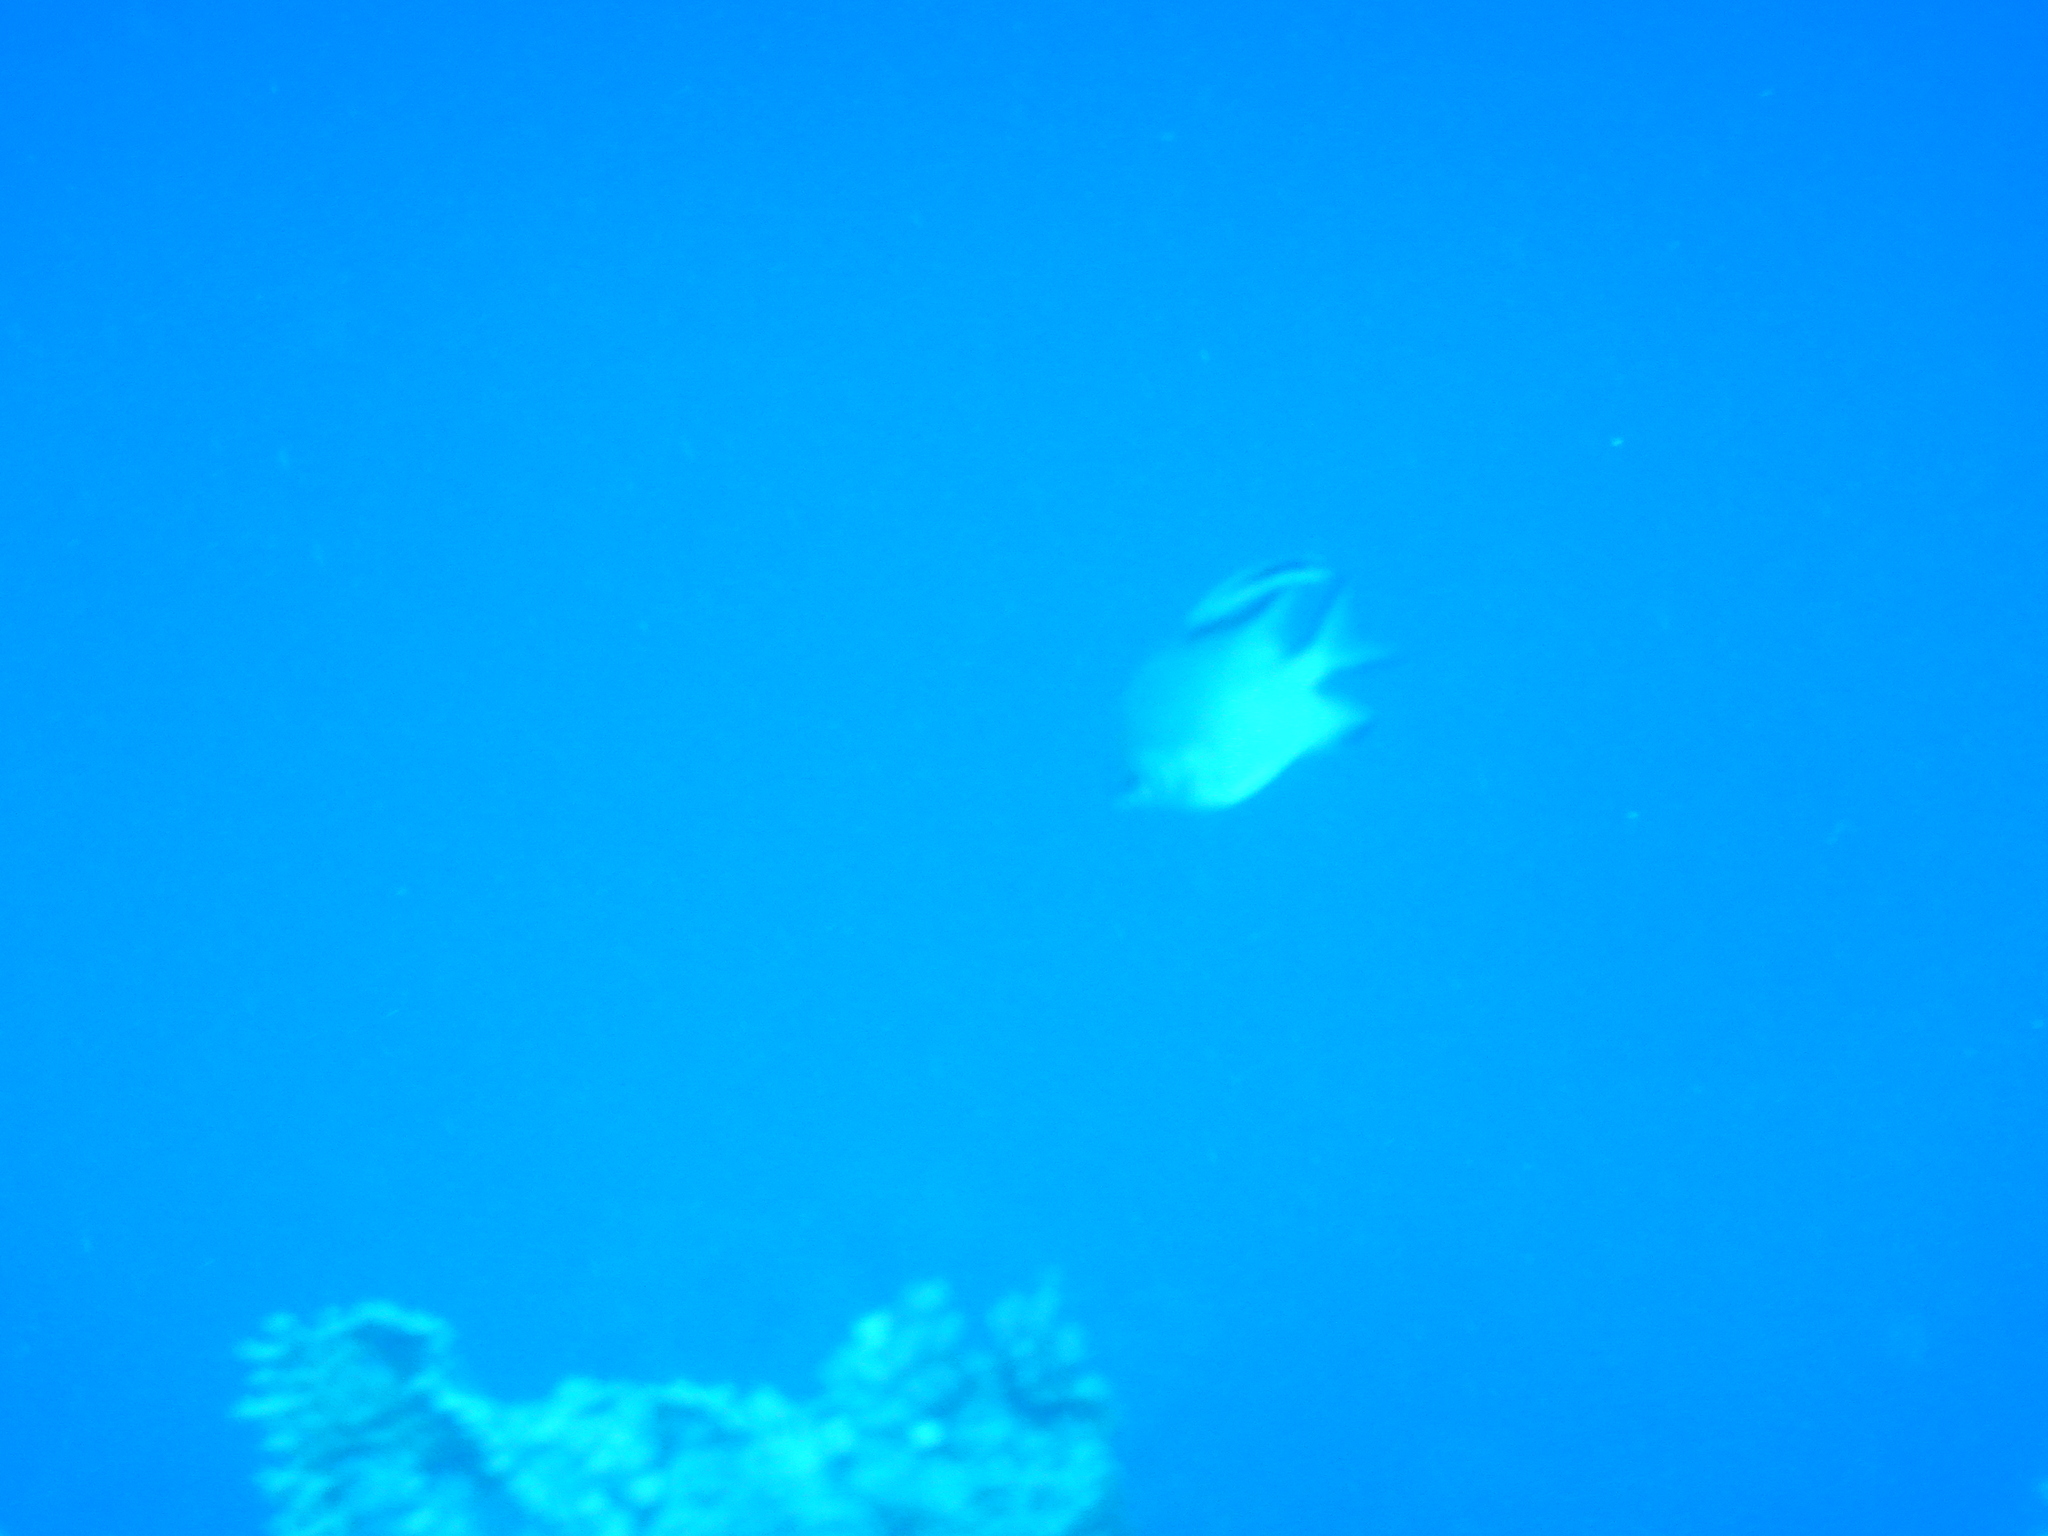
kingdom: Animalia
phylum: Chordata
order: Perciformes
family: Pomacentridae
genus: Amblyglyphidodon
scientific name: Amblyglyphidodon indicus
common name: Maldives damselfish
